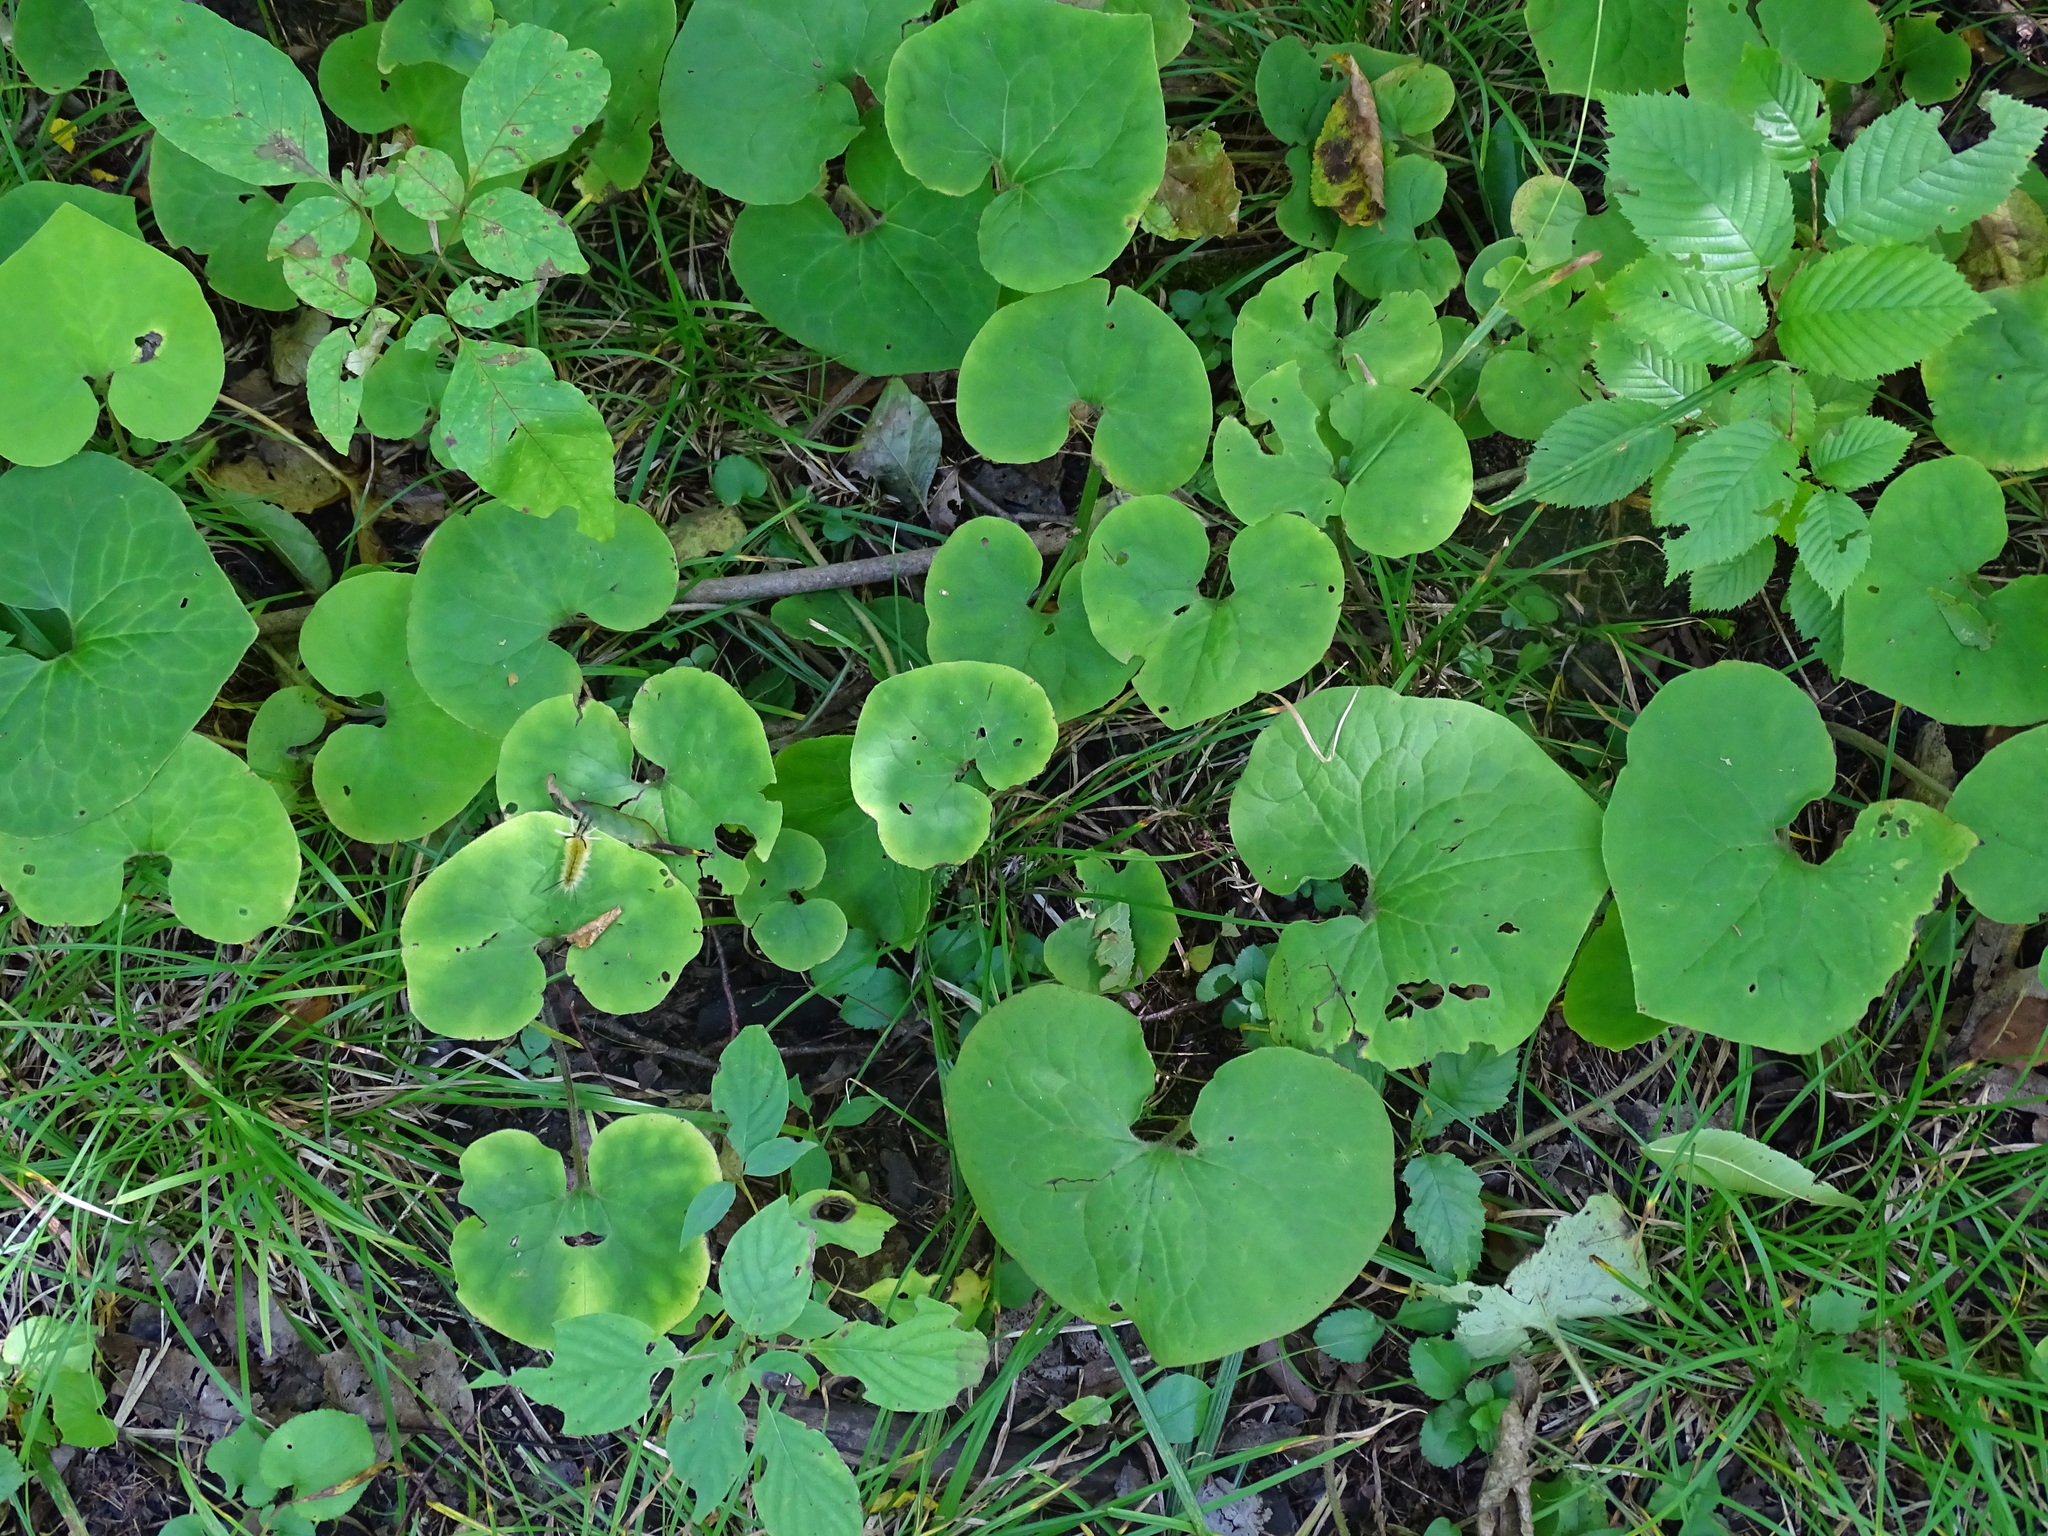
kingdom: Plantae
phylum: Tracheophyta
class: Magnoliopsida
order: Piperales
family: Aristolochiaceae
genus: Asarum
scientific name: Asarum canadense
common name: Wild ginger
